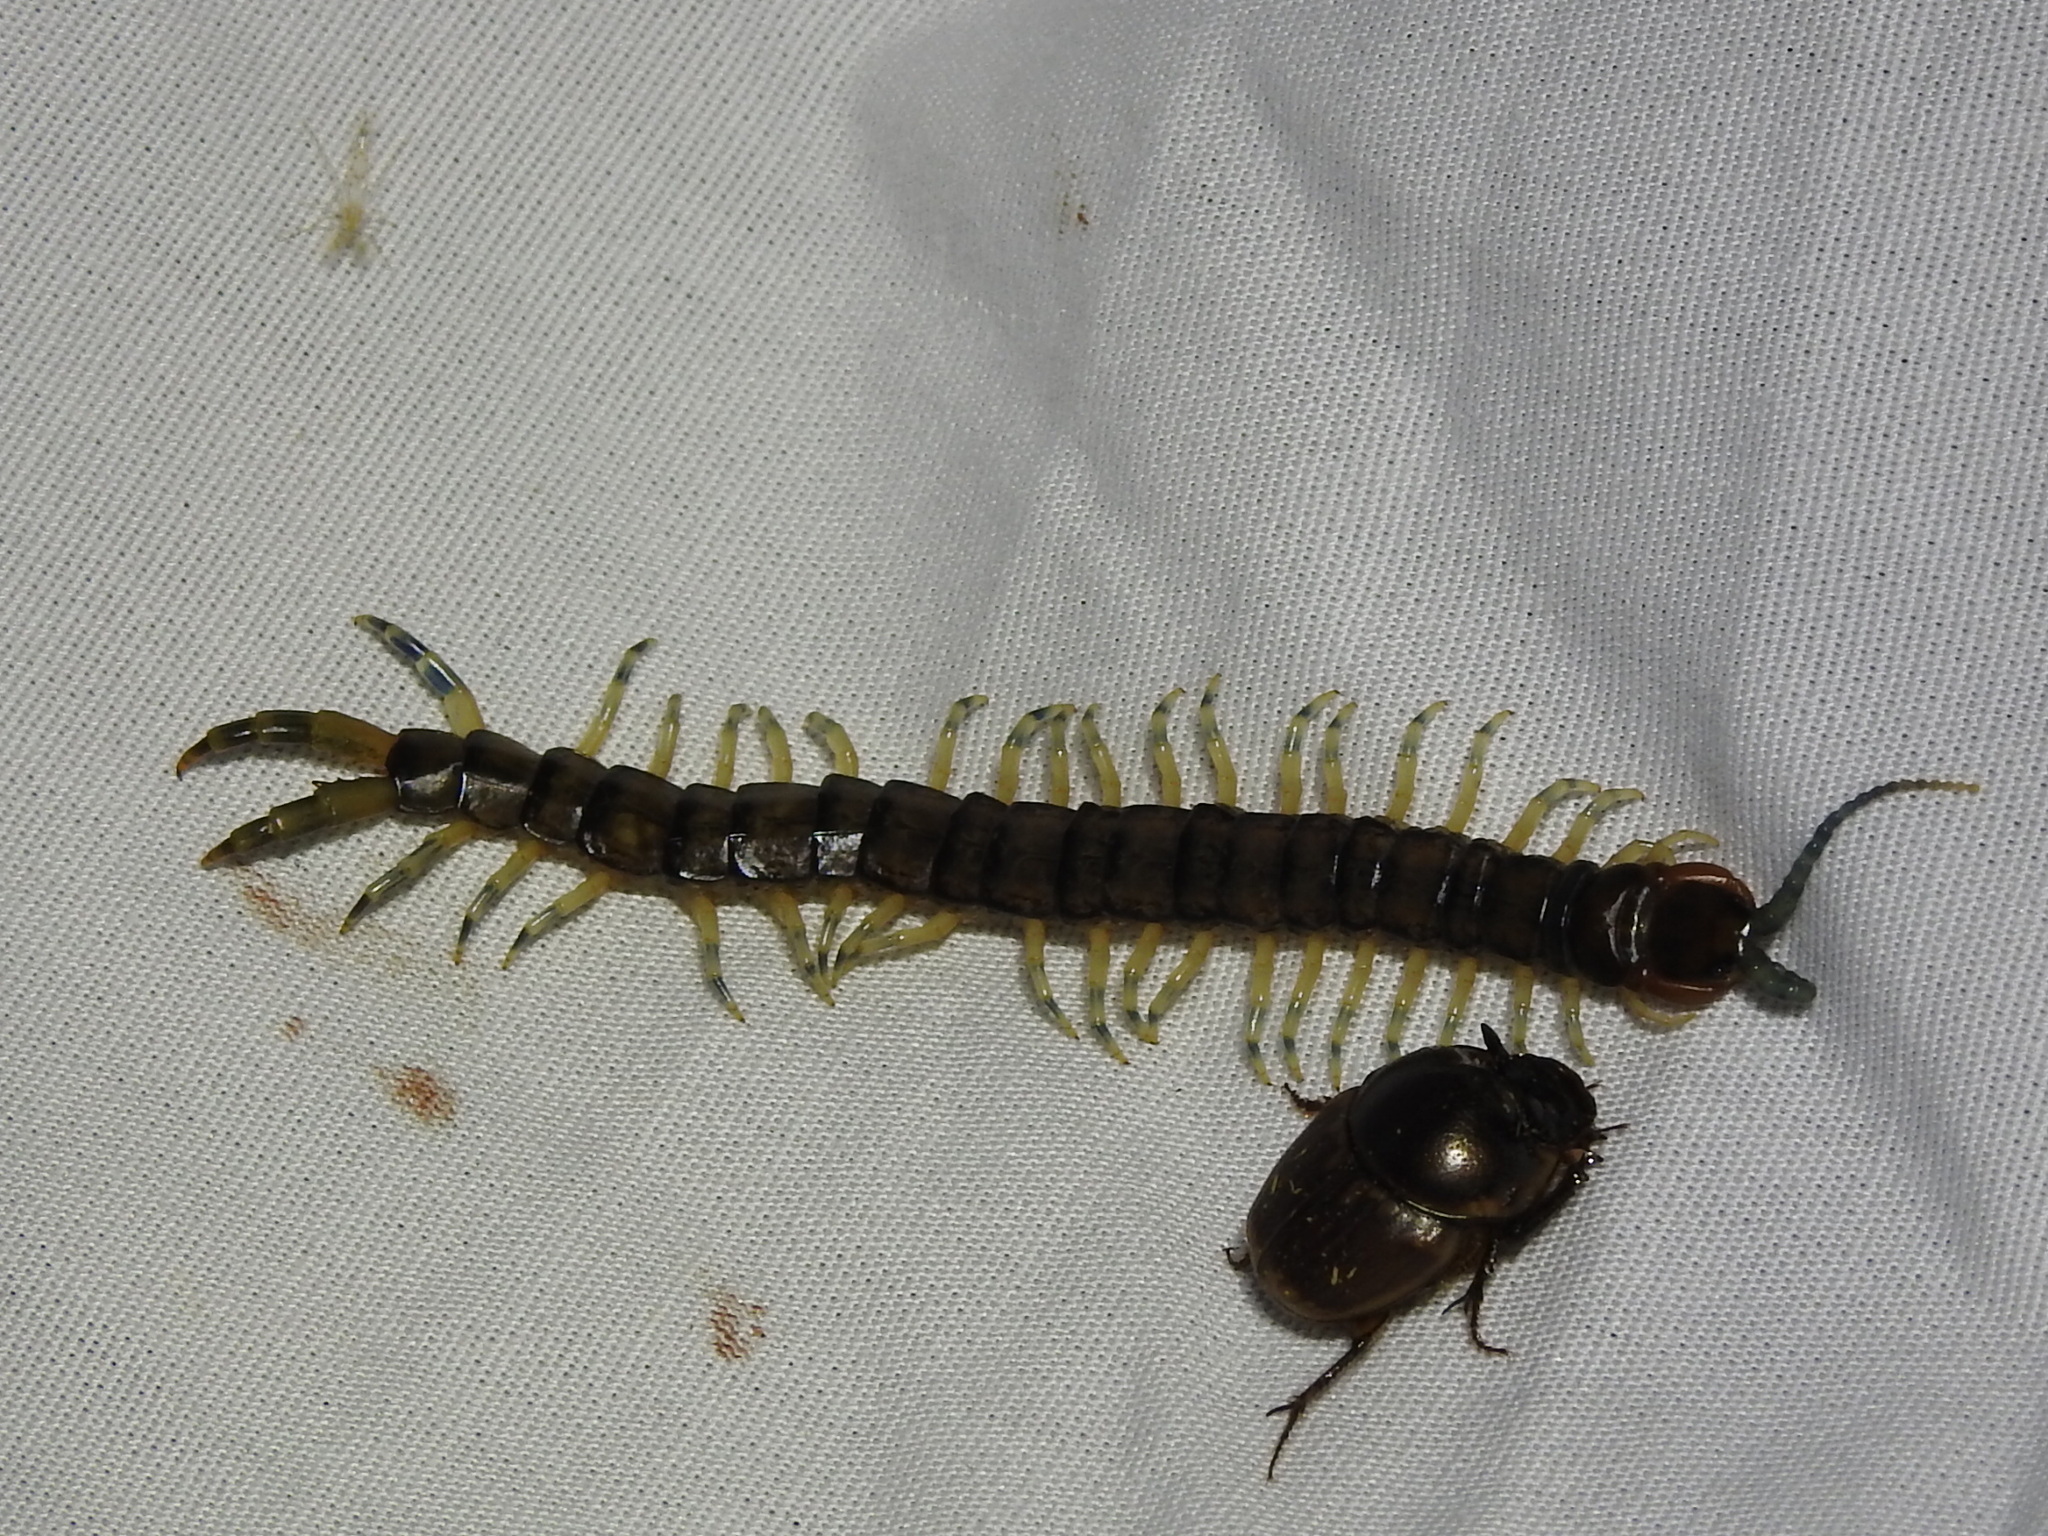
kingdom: Animalia
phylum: Arthropoda
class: Chilopoda
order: Scolopendromorpha
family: Scolopendridae
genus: Hemiscolopendra
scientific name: Hemiscolopendra marginata
